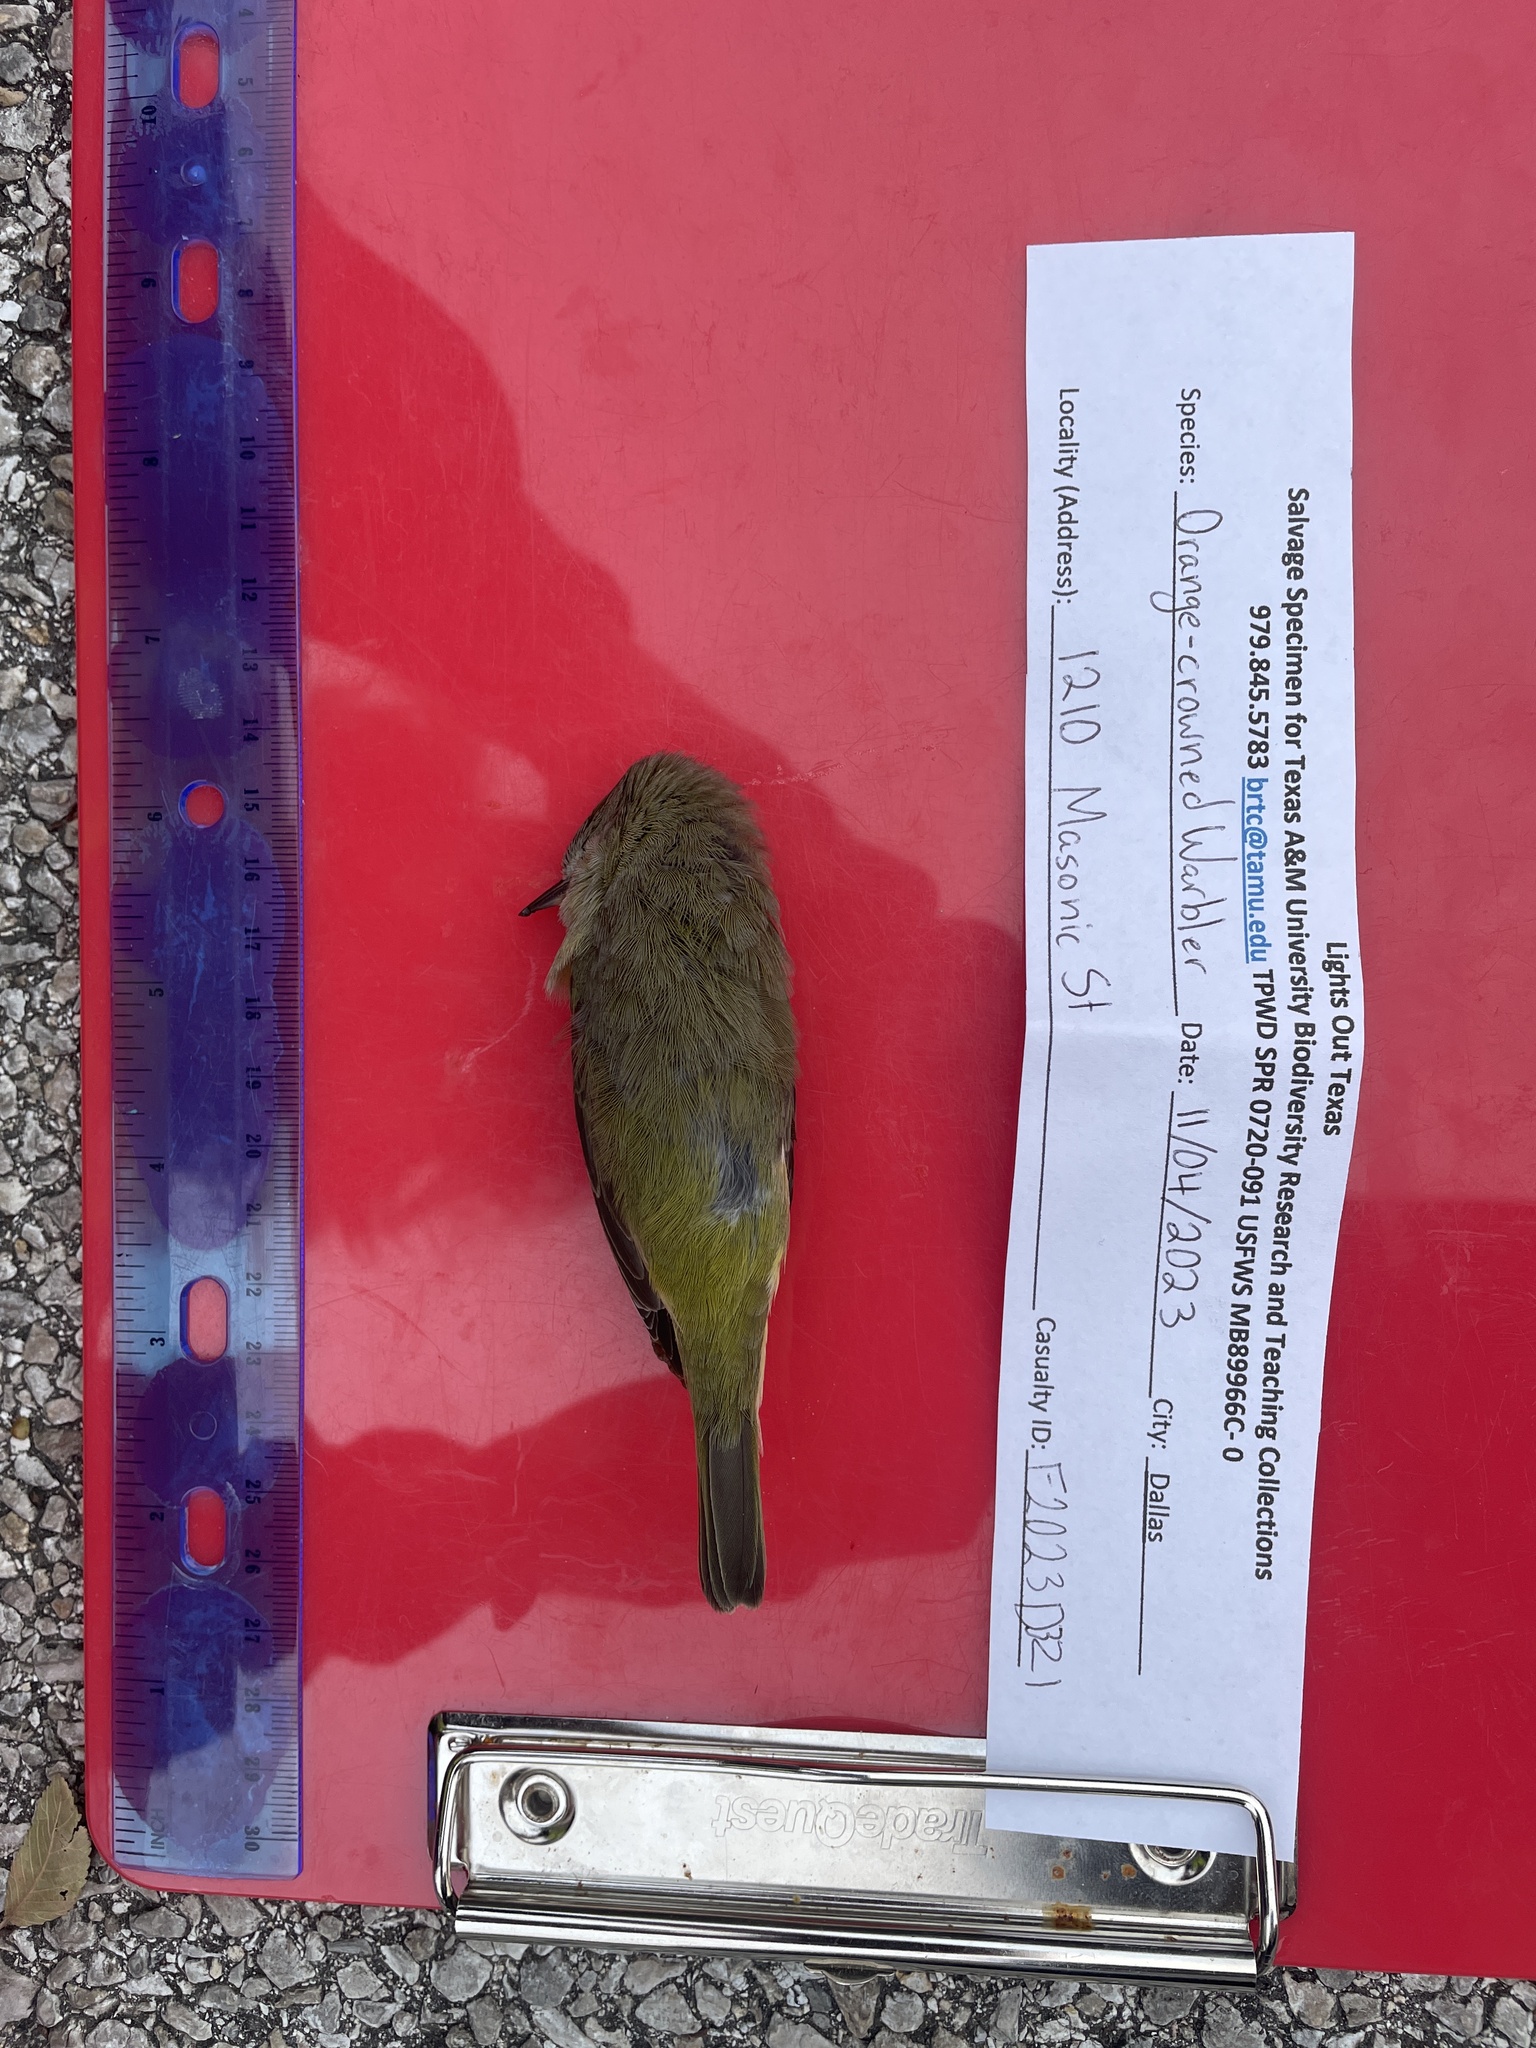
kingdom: Animalia
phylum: Chordata
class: Aves
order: Passeriformes
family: Parulidae
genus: Leiothlypis
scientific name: Leiothlypis celata
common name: Orange-crowned warbler
